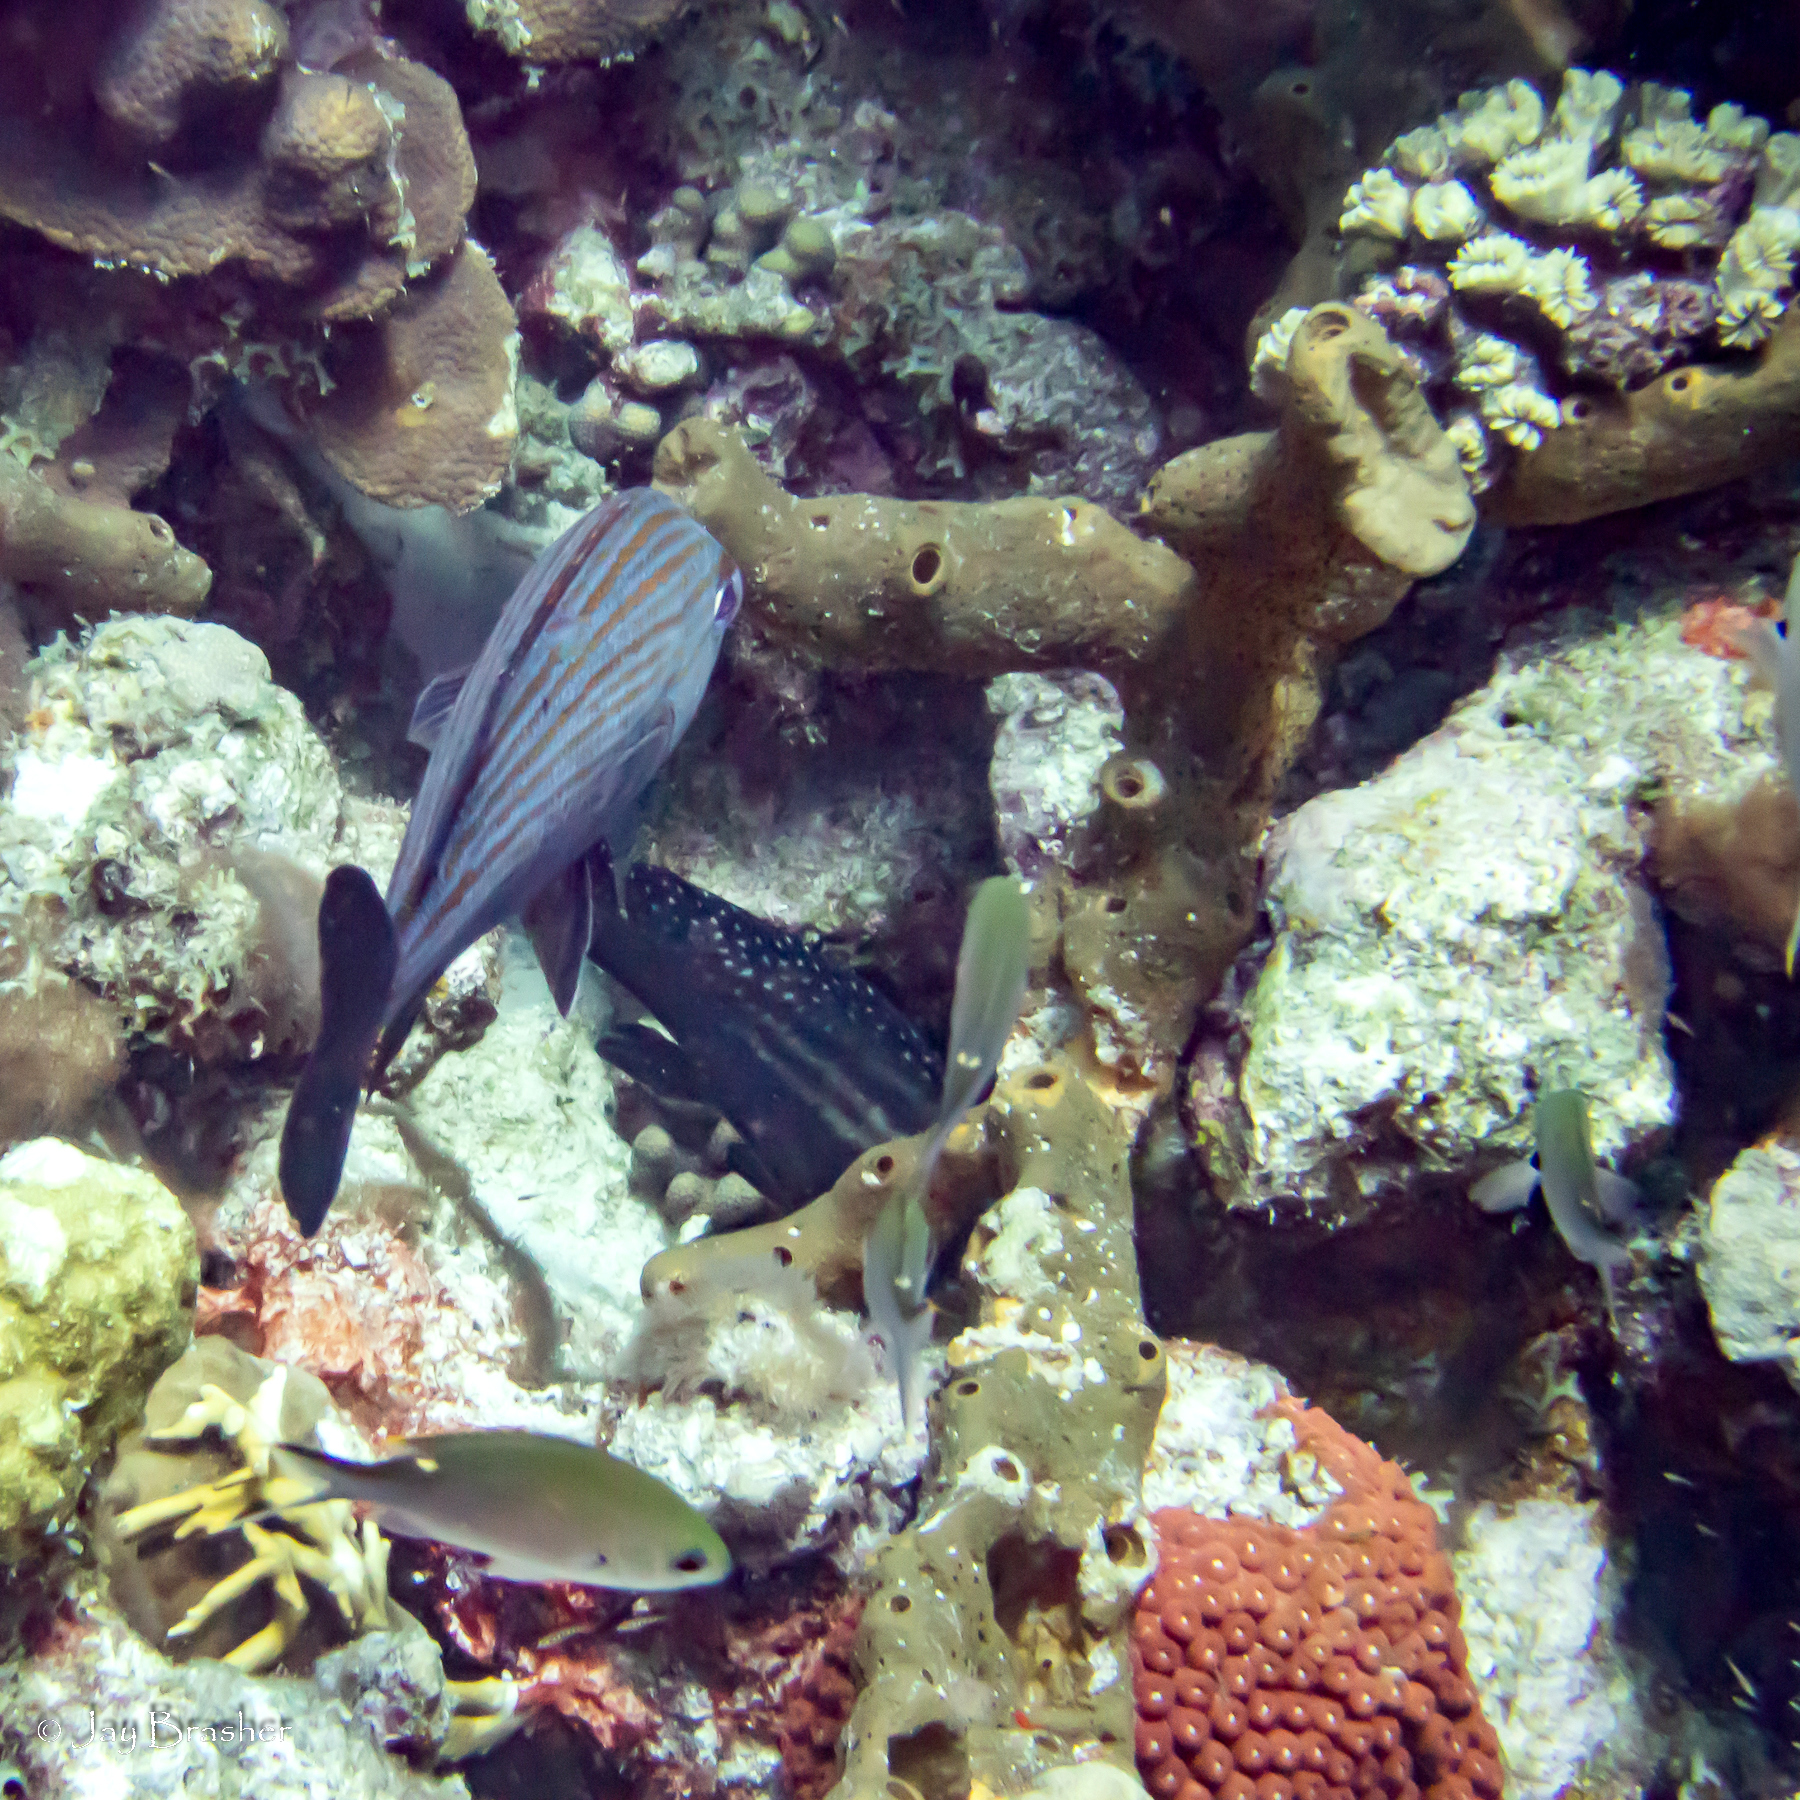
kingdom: Animalia
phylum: Cnidaria
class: Anthozoa
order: Scleractinia
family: Meandrinidae
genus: Eusmilia
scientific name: Eusmilia fastigiata
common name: Smooth flower coral
